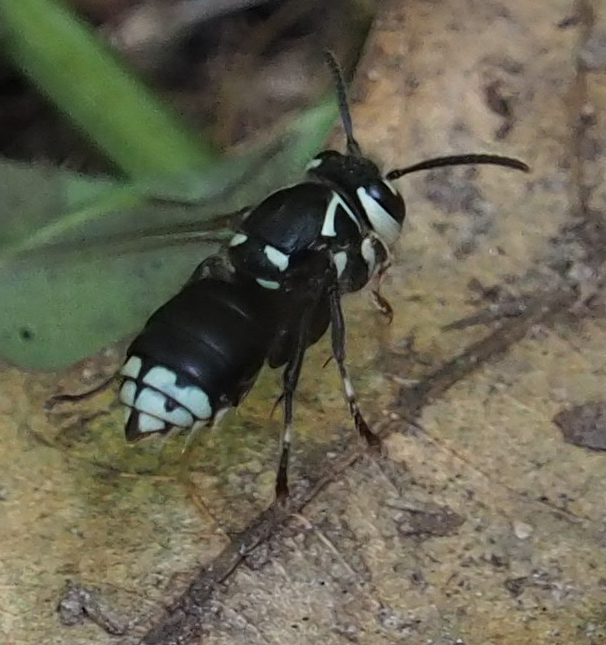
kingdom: Animalia
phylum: Arthropoda
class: Insecta
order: Hymenoptera
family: Vespidae
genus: Dolichovespula
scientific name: Dolichovespula maculata
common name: Bald-faced hornet
